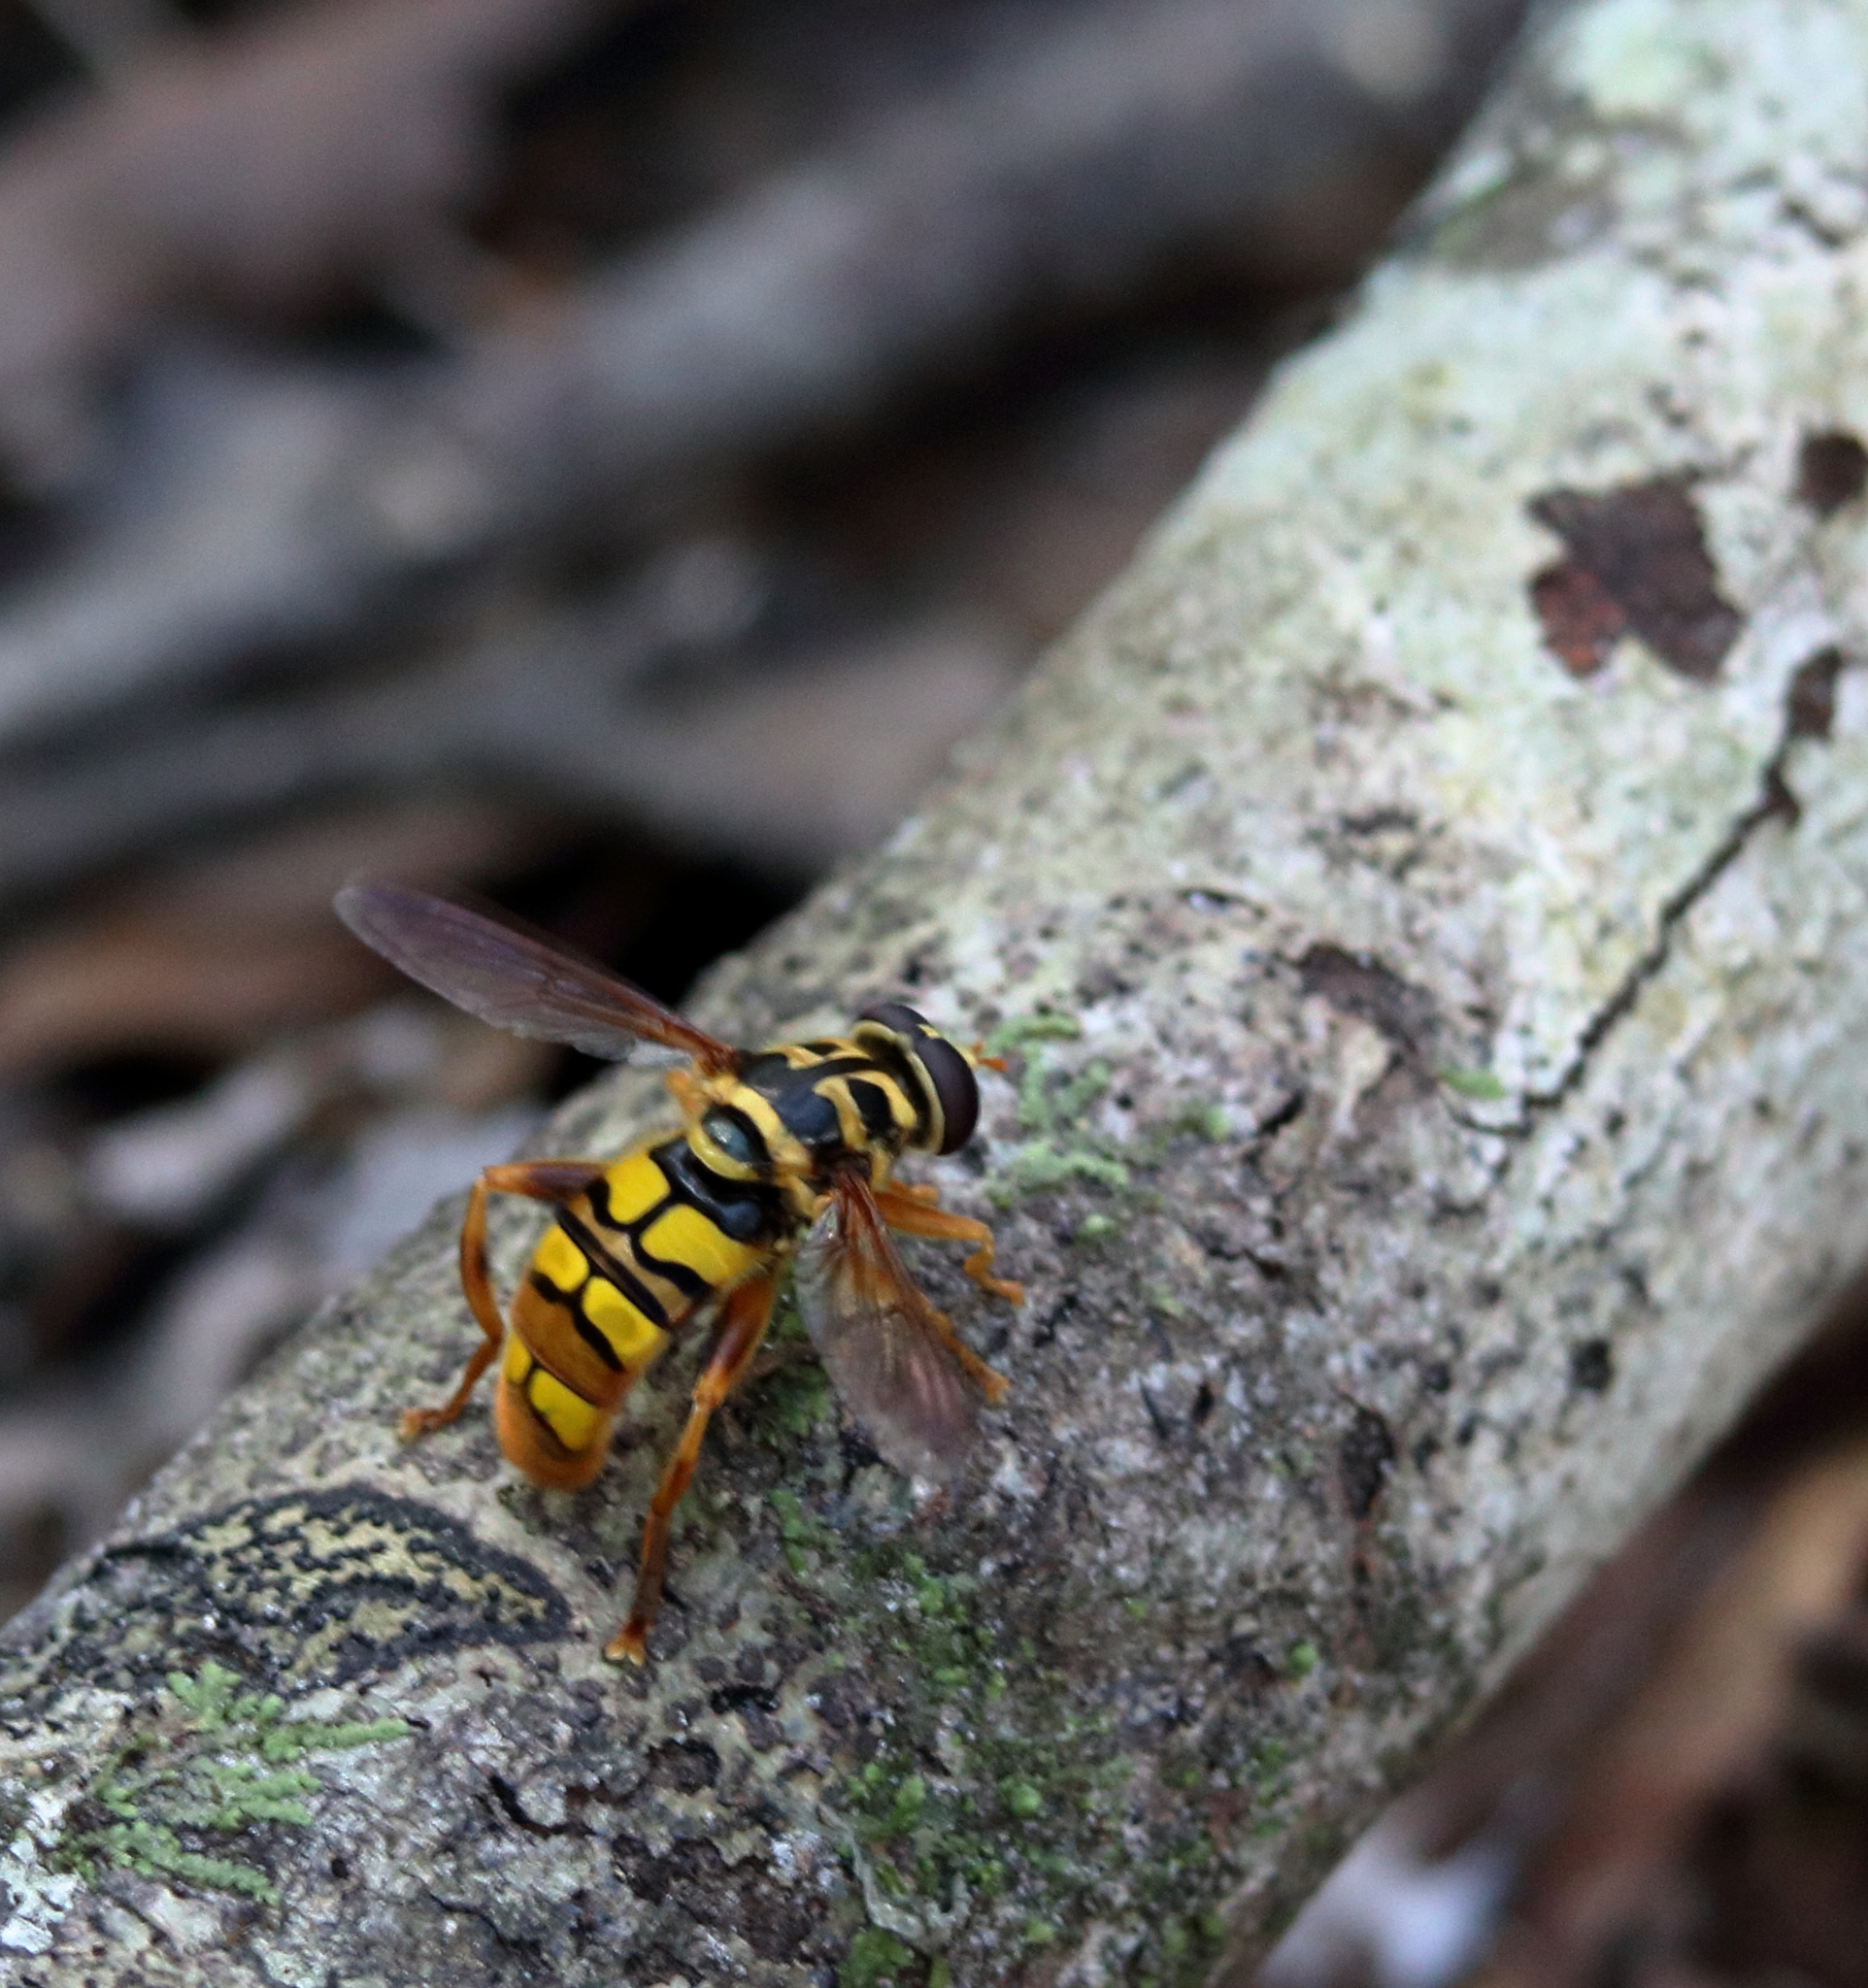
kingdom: Animalia
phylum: Arthropoda
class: Insecta
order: Diptera
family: Syrphidae
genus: Milesia
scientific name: Milesia virginiensis
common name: Virginia giant
